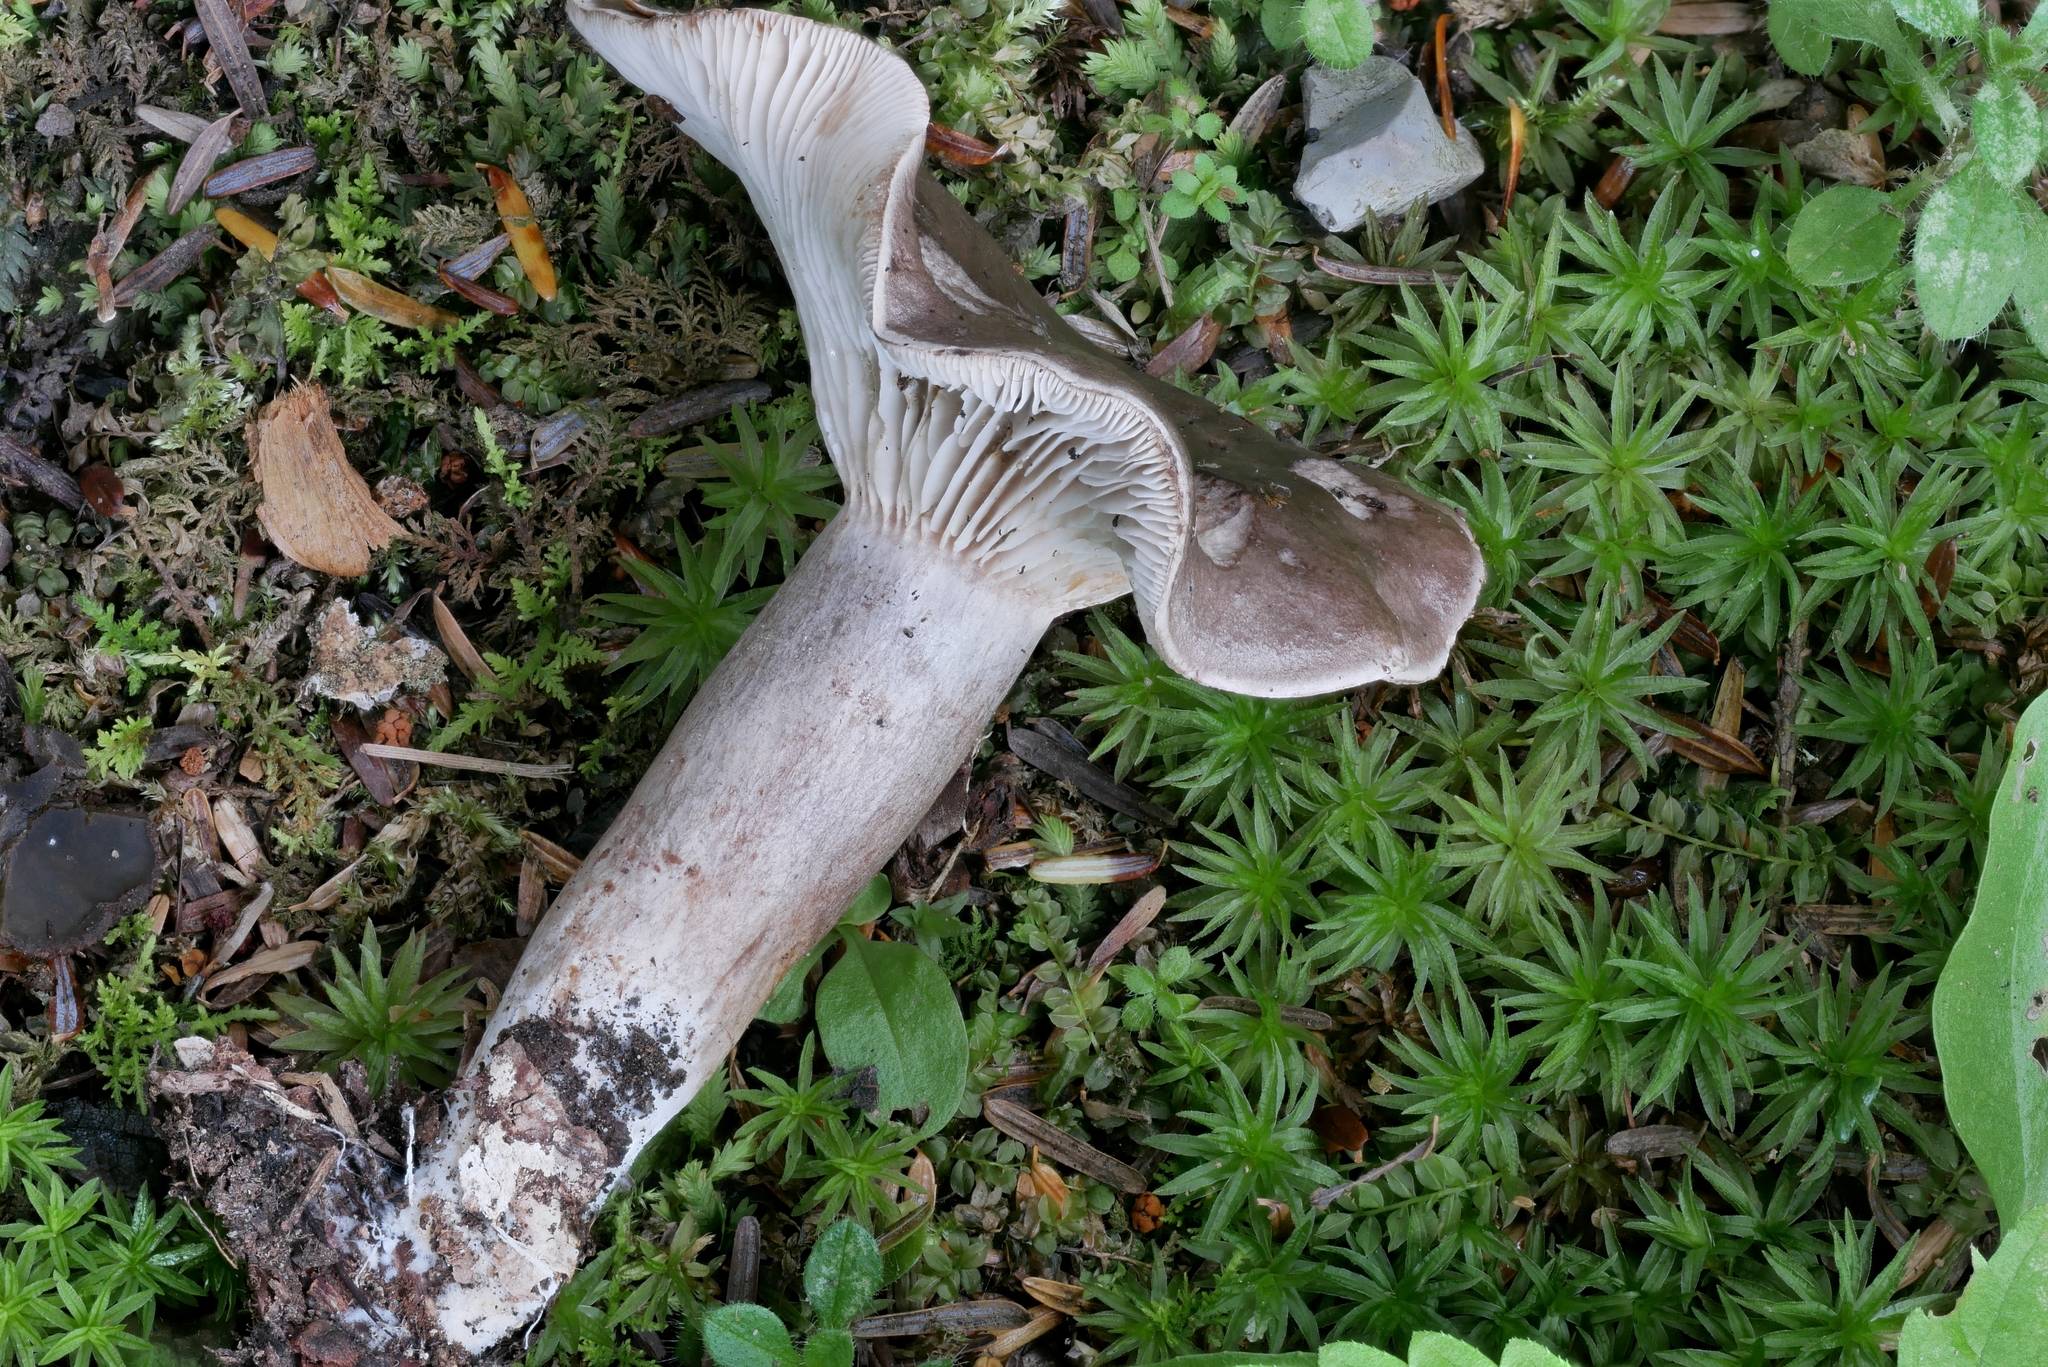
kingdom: Fungi
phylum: Basidiomycota
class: Agaricomycetes
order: Russulales
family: Russulaceae
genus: Lactarius
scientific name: Lactarius mucidus
